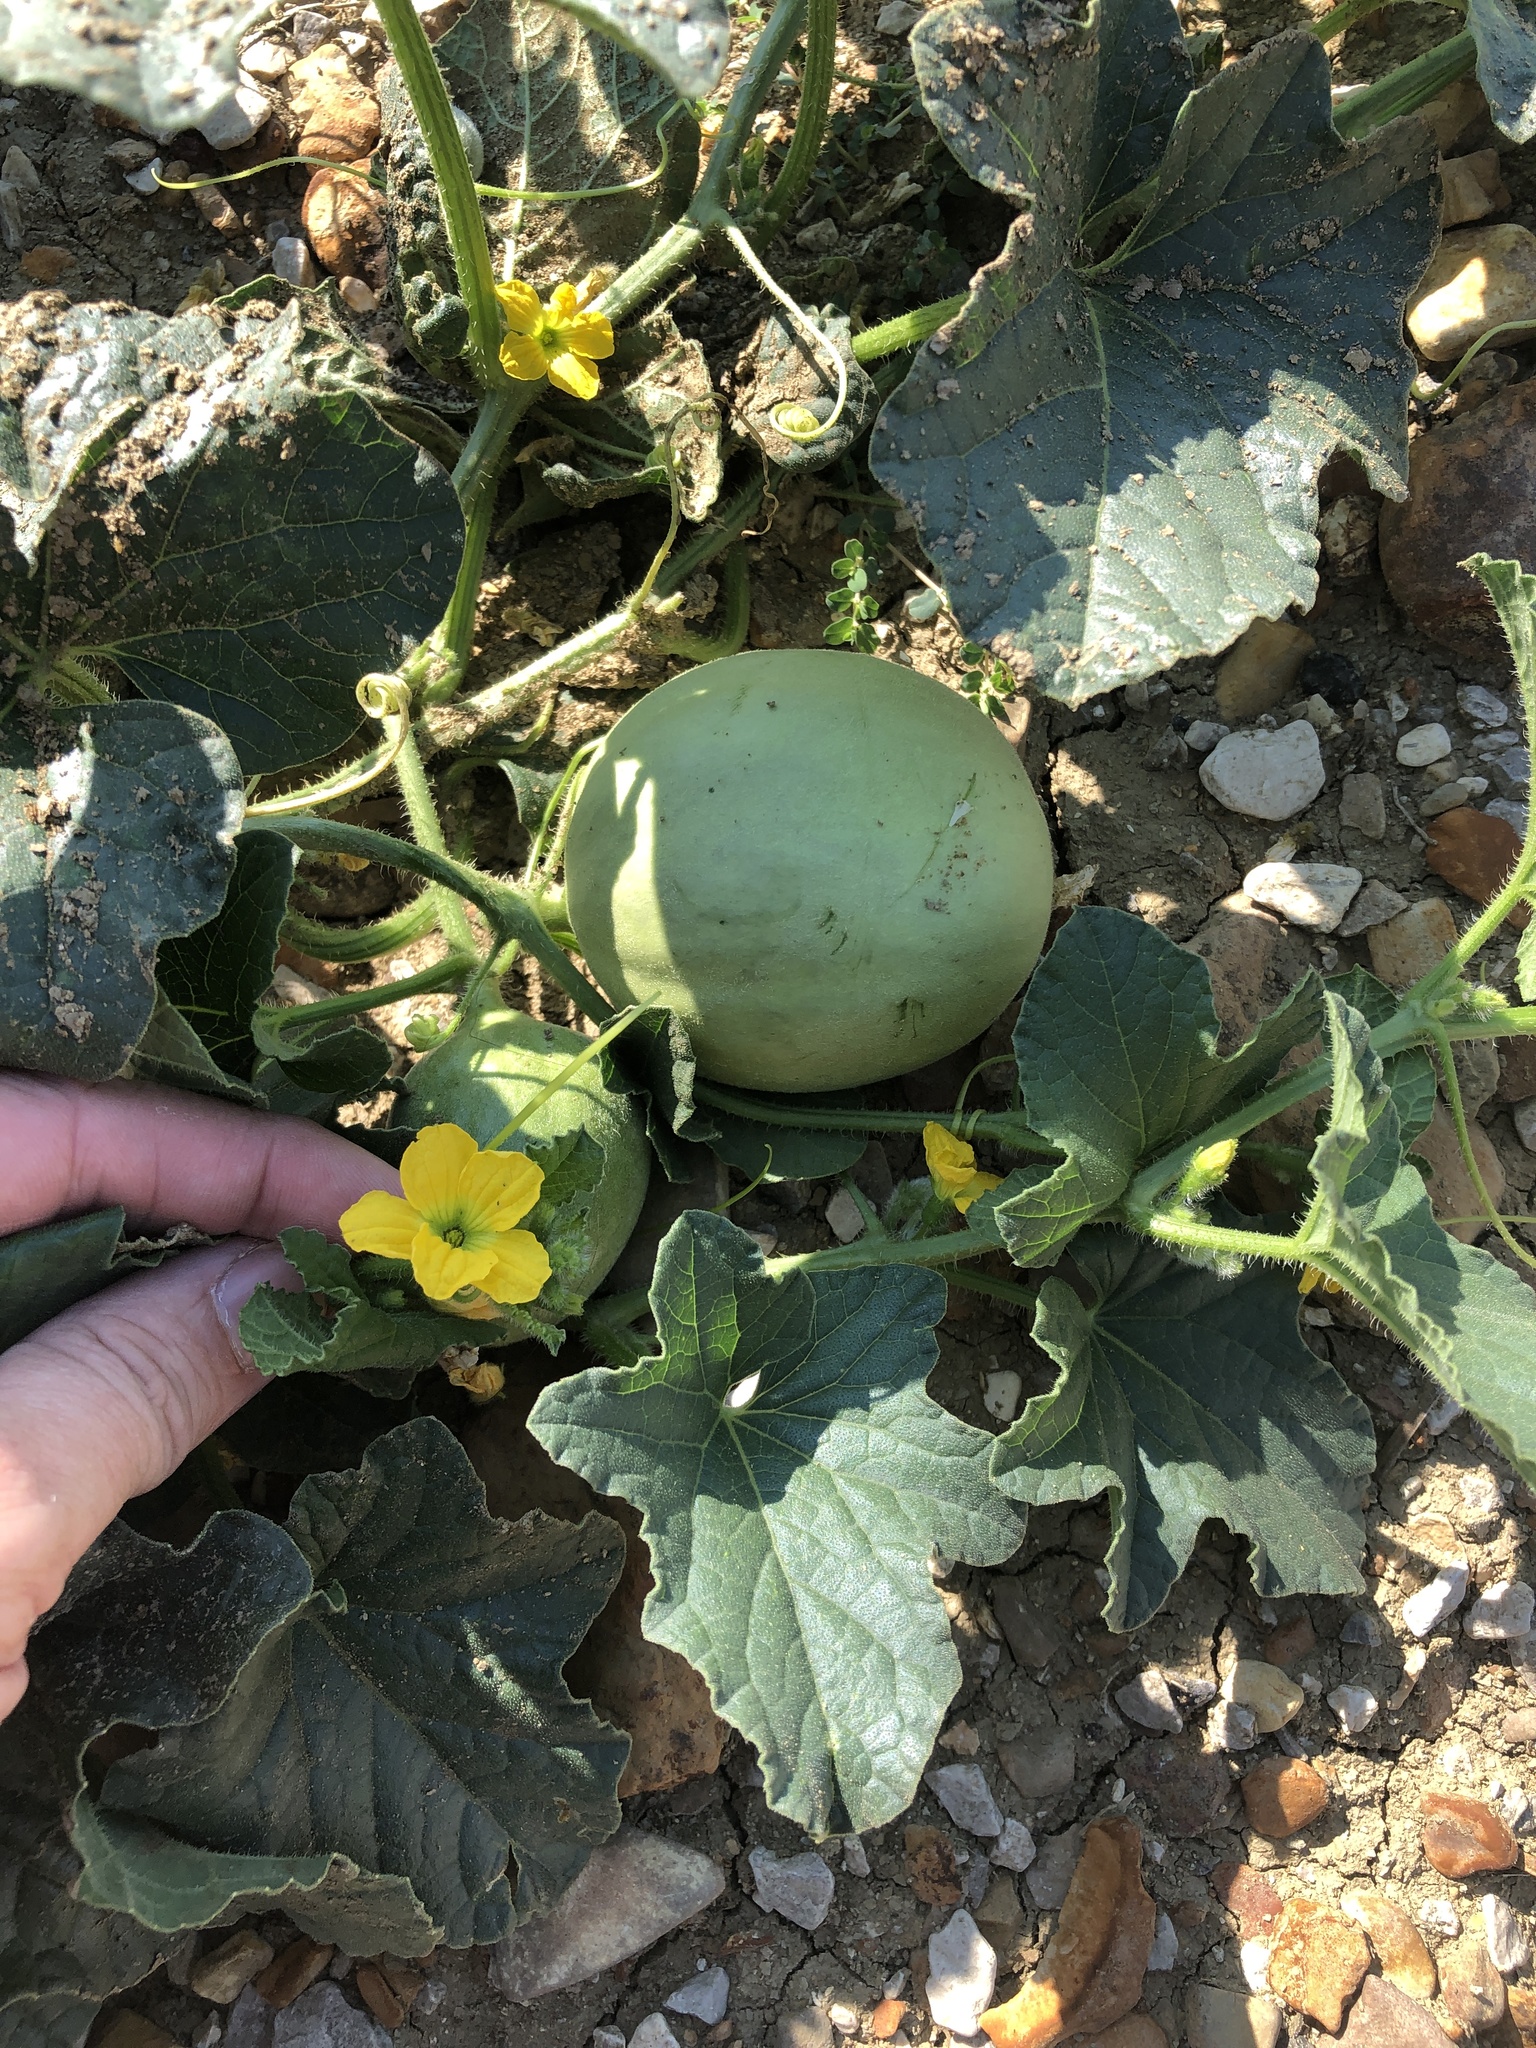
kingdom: Plantae
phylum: Tracheophyta
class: Magnoliopsida
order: Cucurbitales
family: Cucurbitaceae
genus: Cucumis
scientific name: Cucumis melo
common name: Melon
